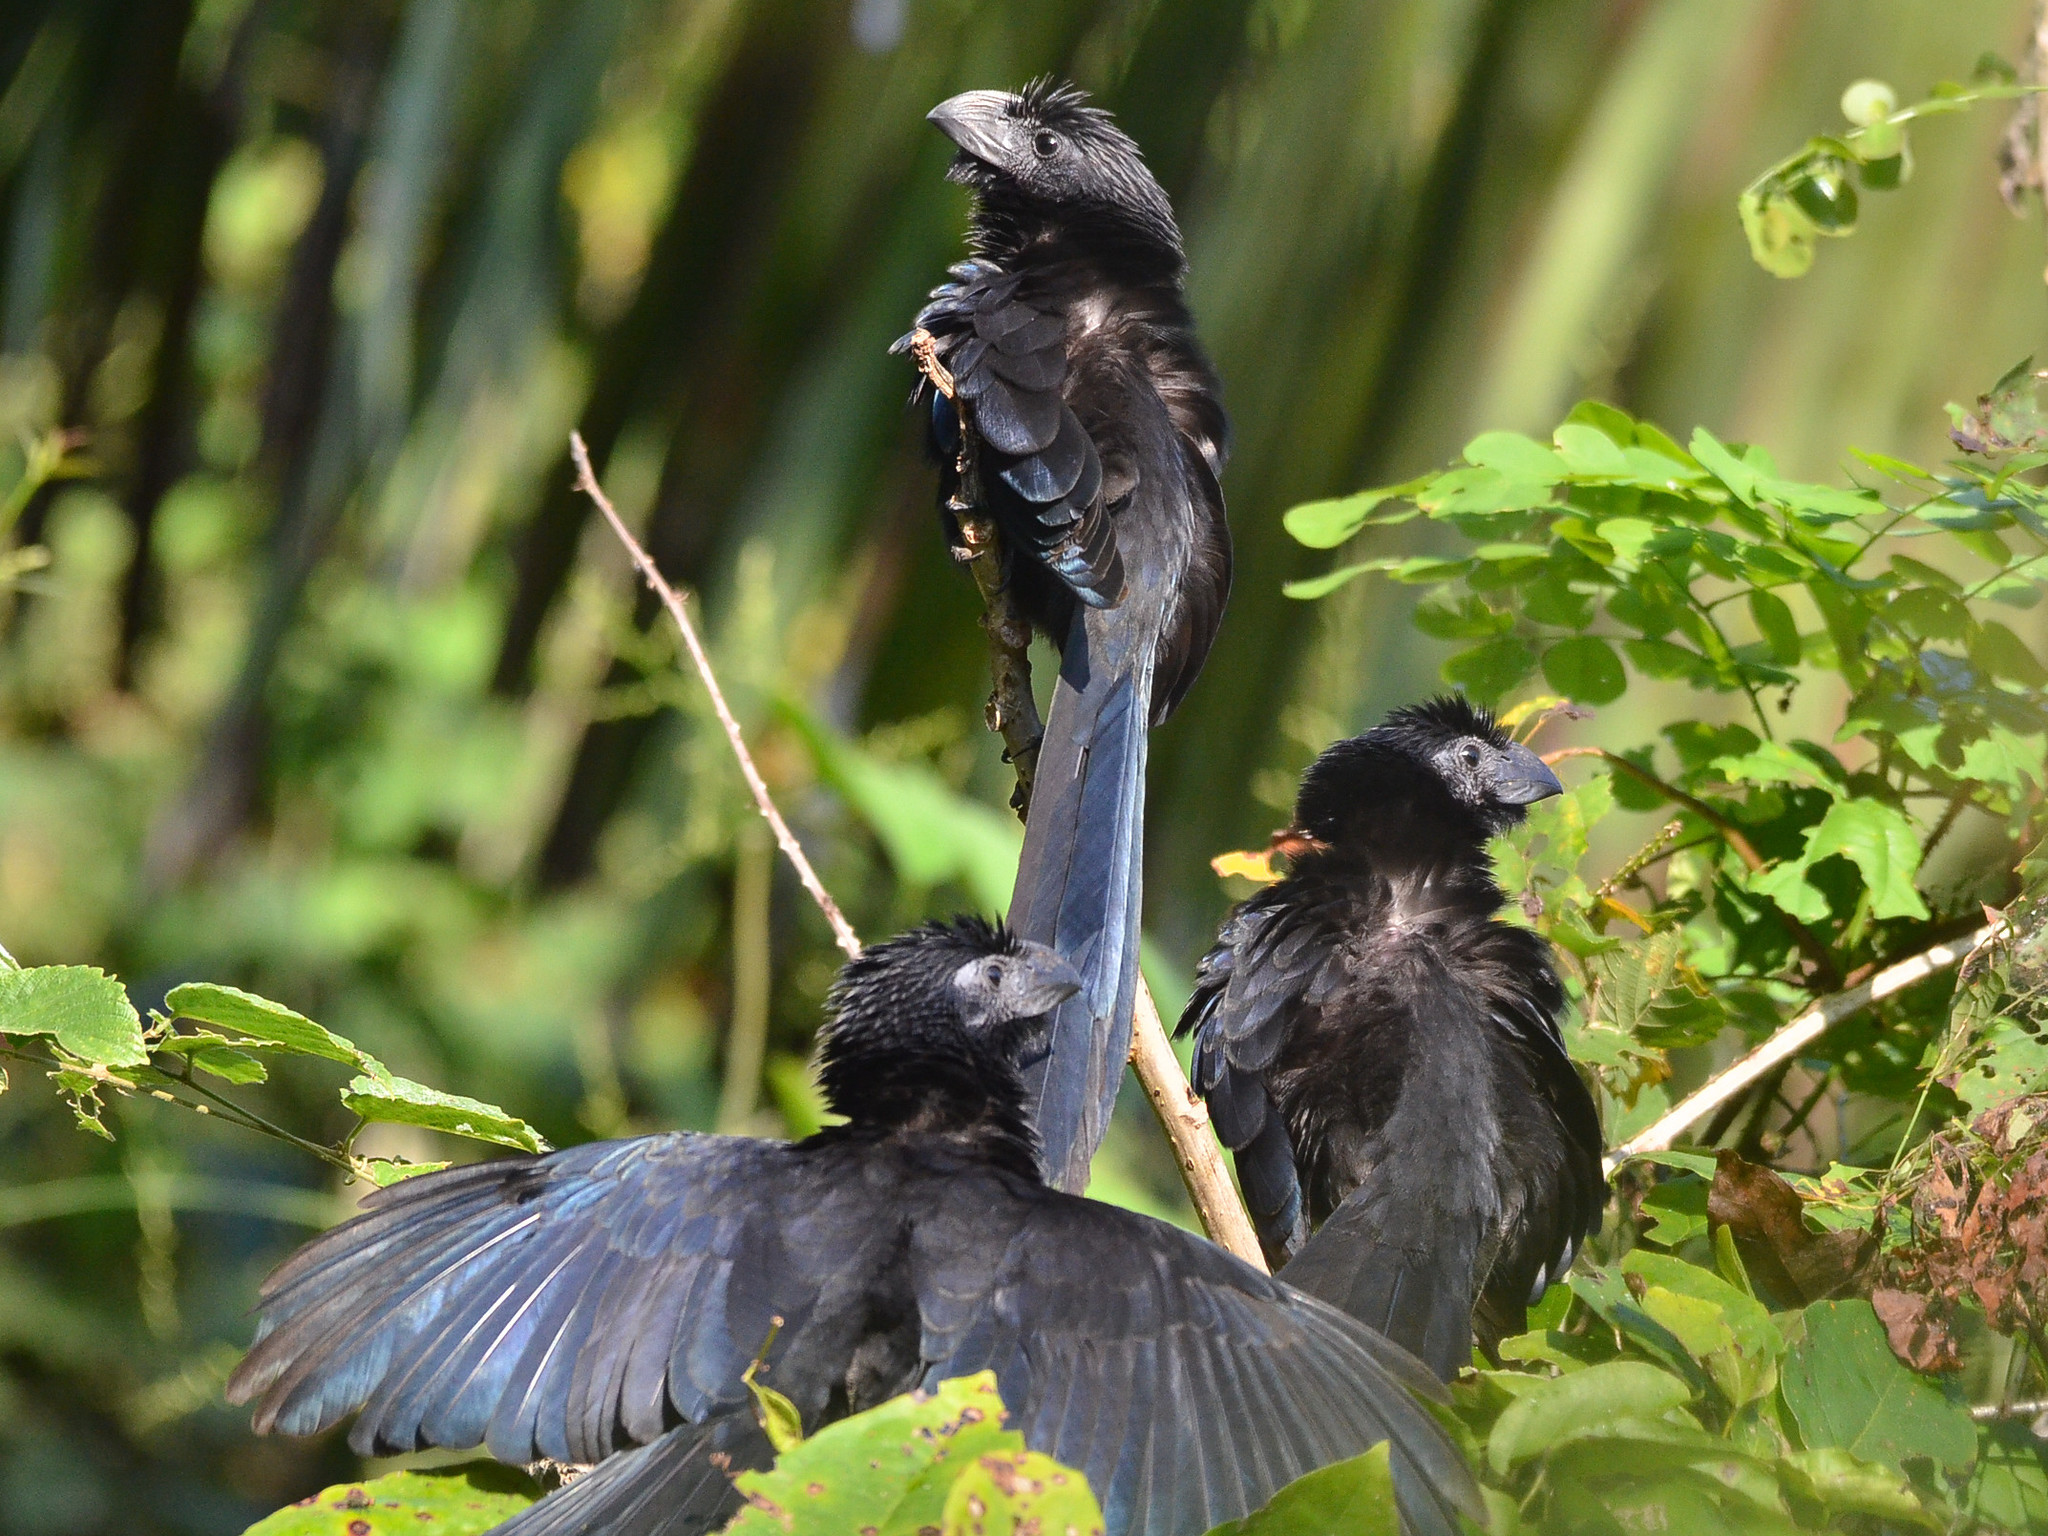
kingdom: Animalia
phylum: Chordata
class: Aves
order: Cuculiformes
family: Cuculidae
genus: Crotophaga
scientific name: Crotophaga sulcirostris
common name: Groove-billed ani
